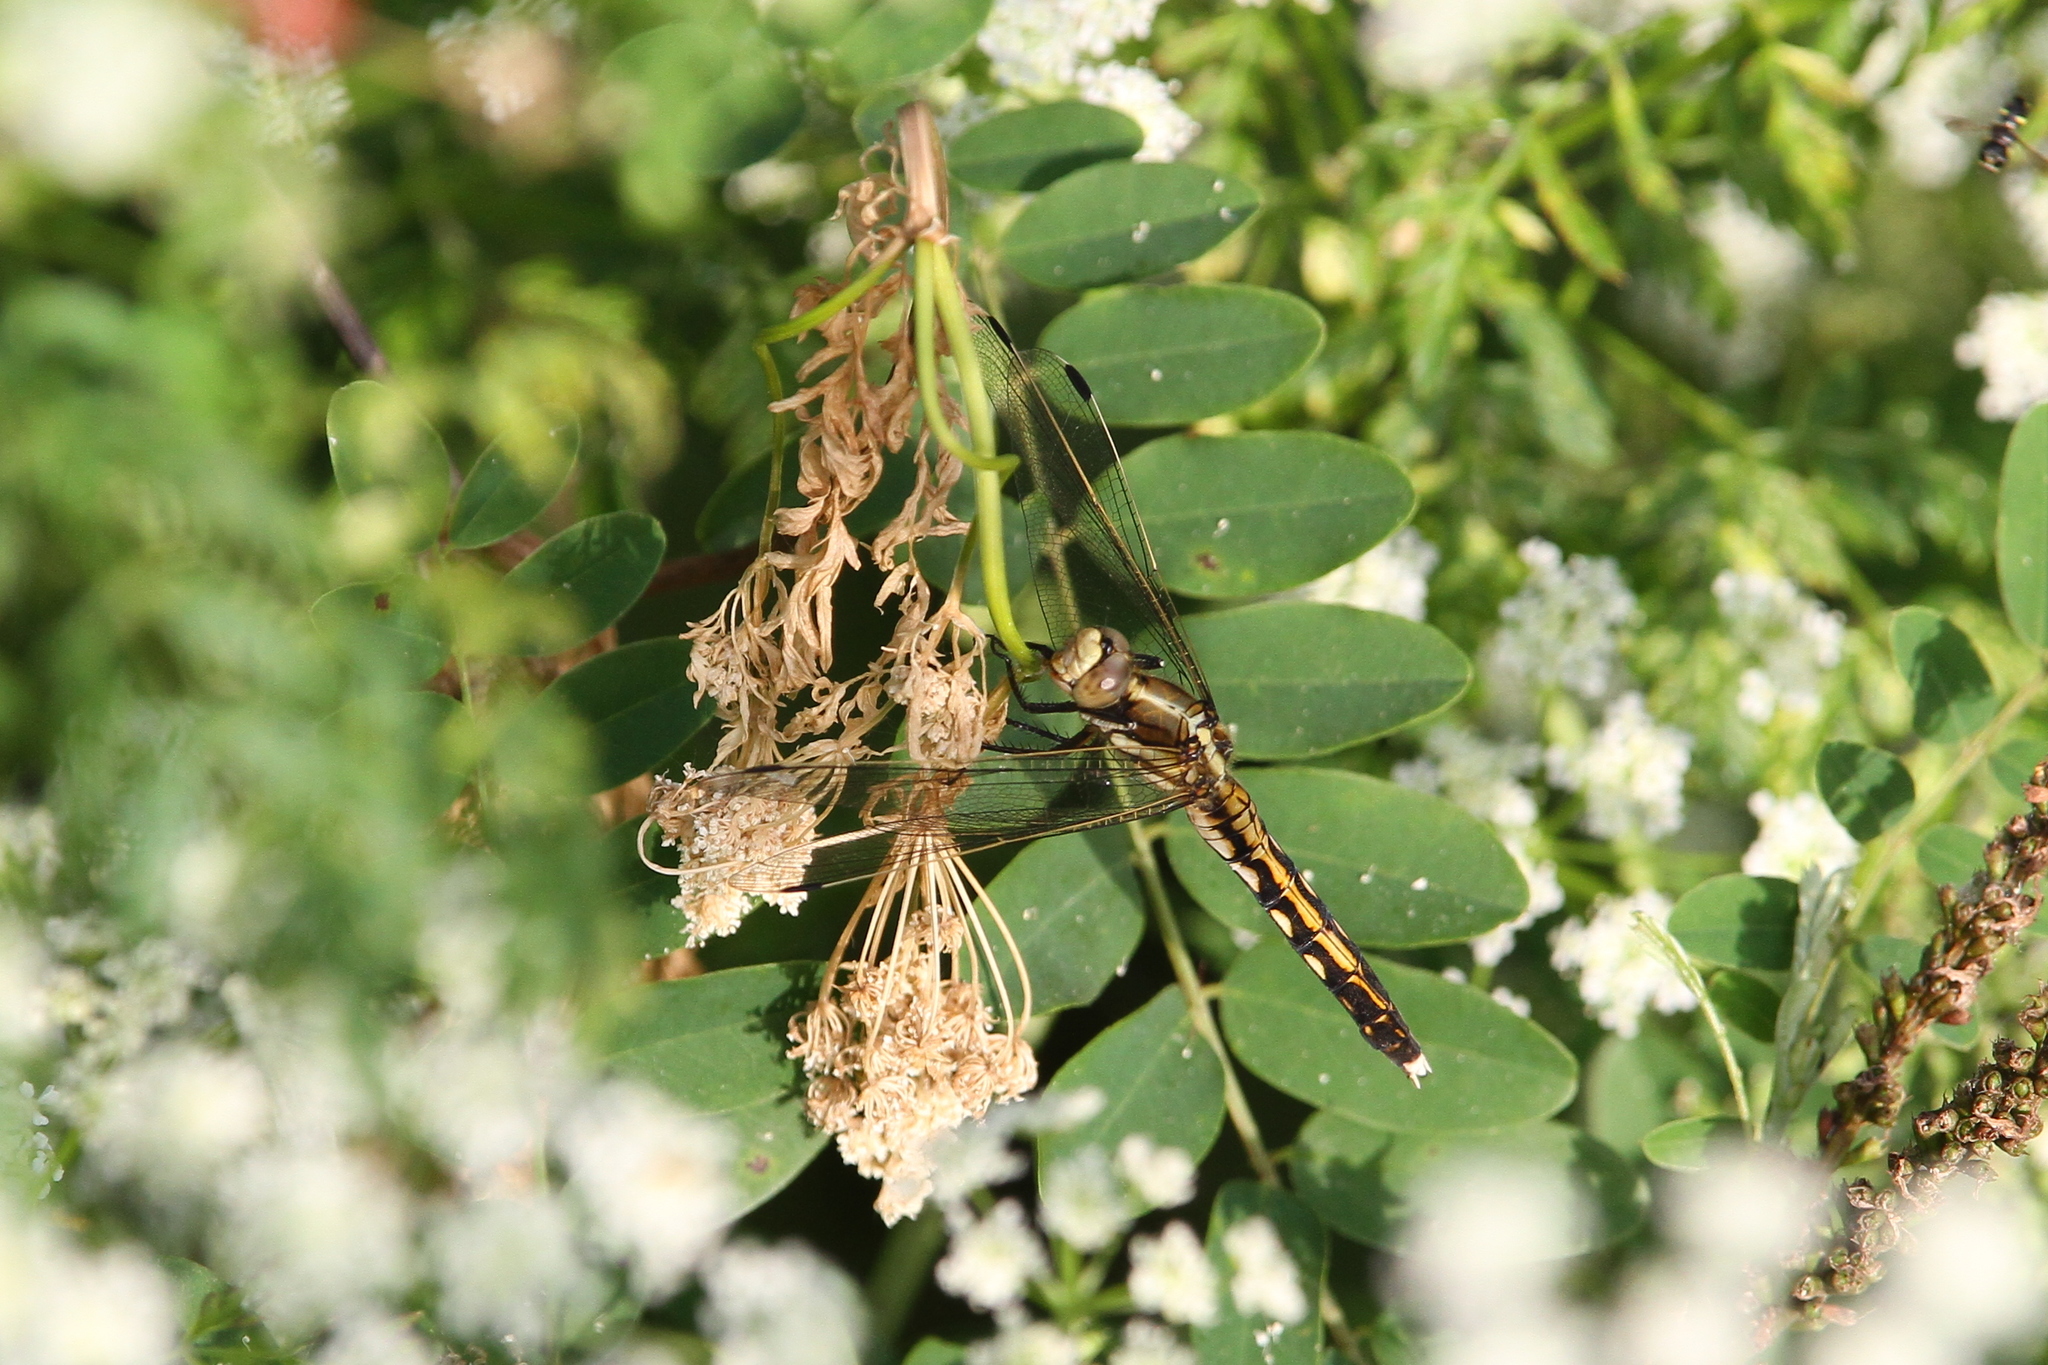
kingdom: Animalia
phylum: Arthropoda
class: Insecta
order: Odonata
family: Libellulidae
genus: Orthetrum
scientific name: Orthetrum albistylum
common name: White-tailed skimmer
